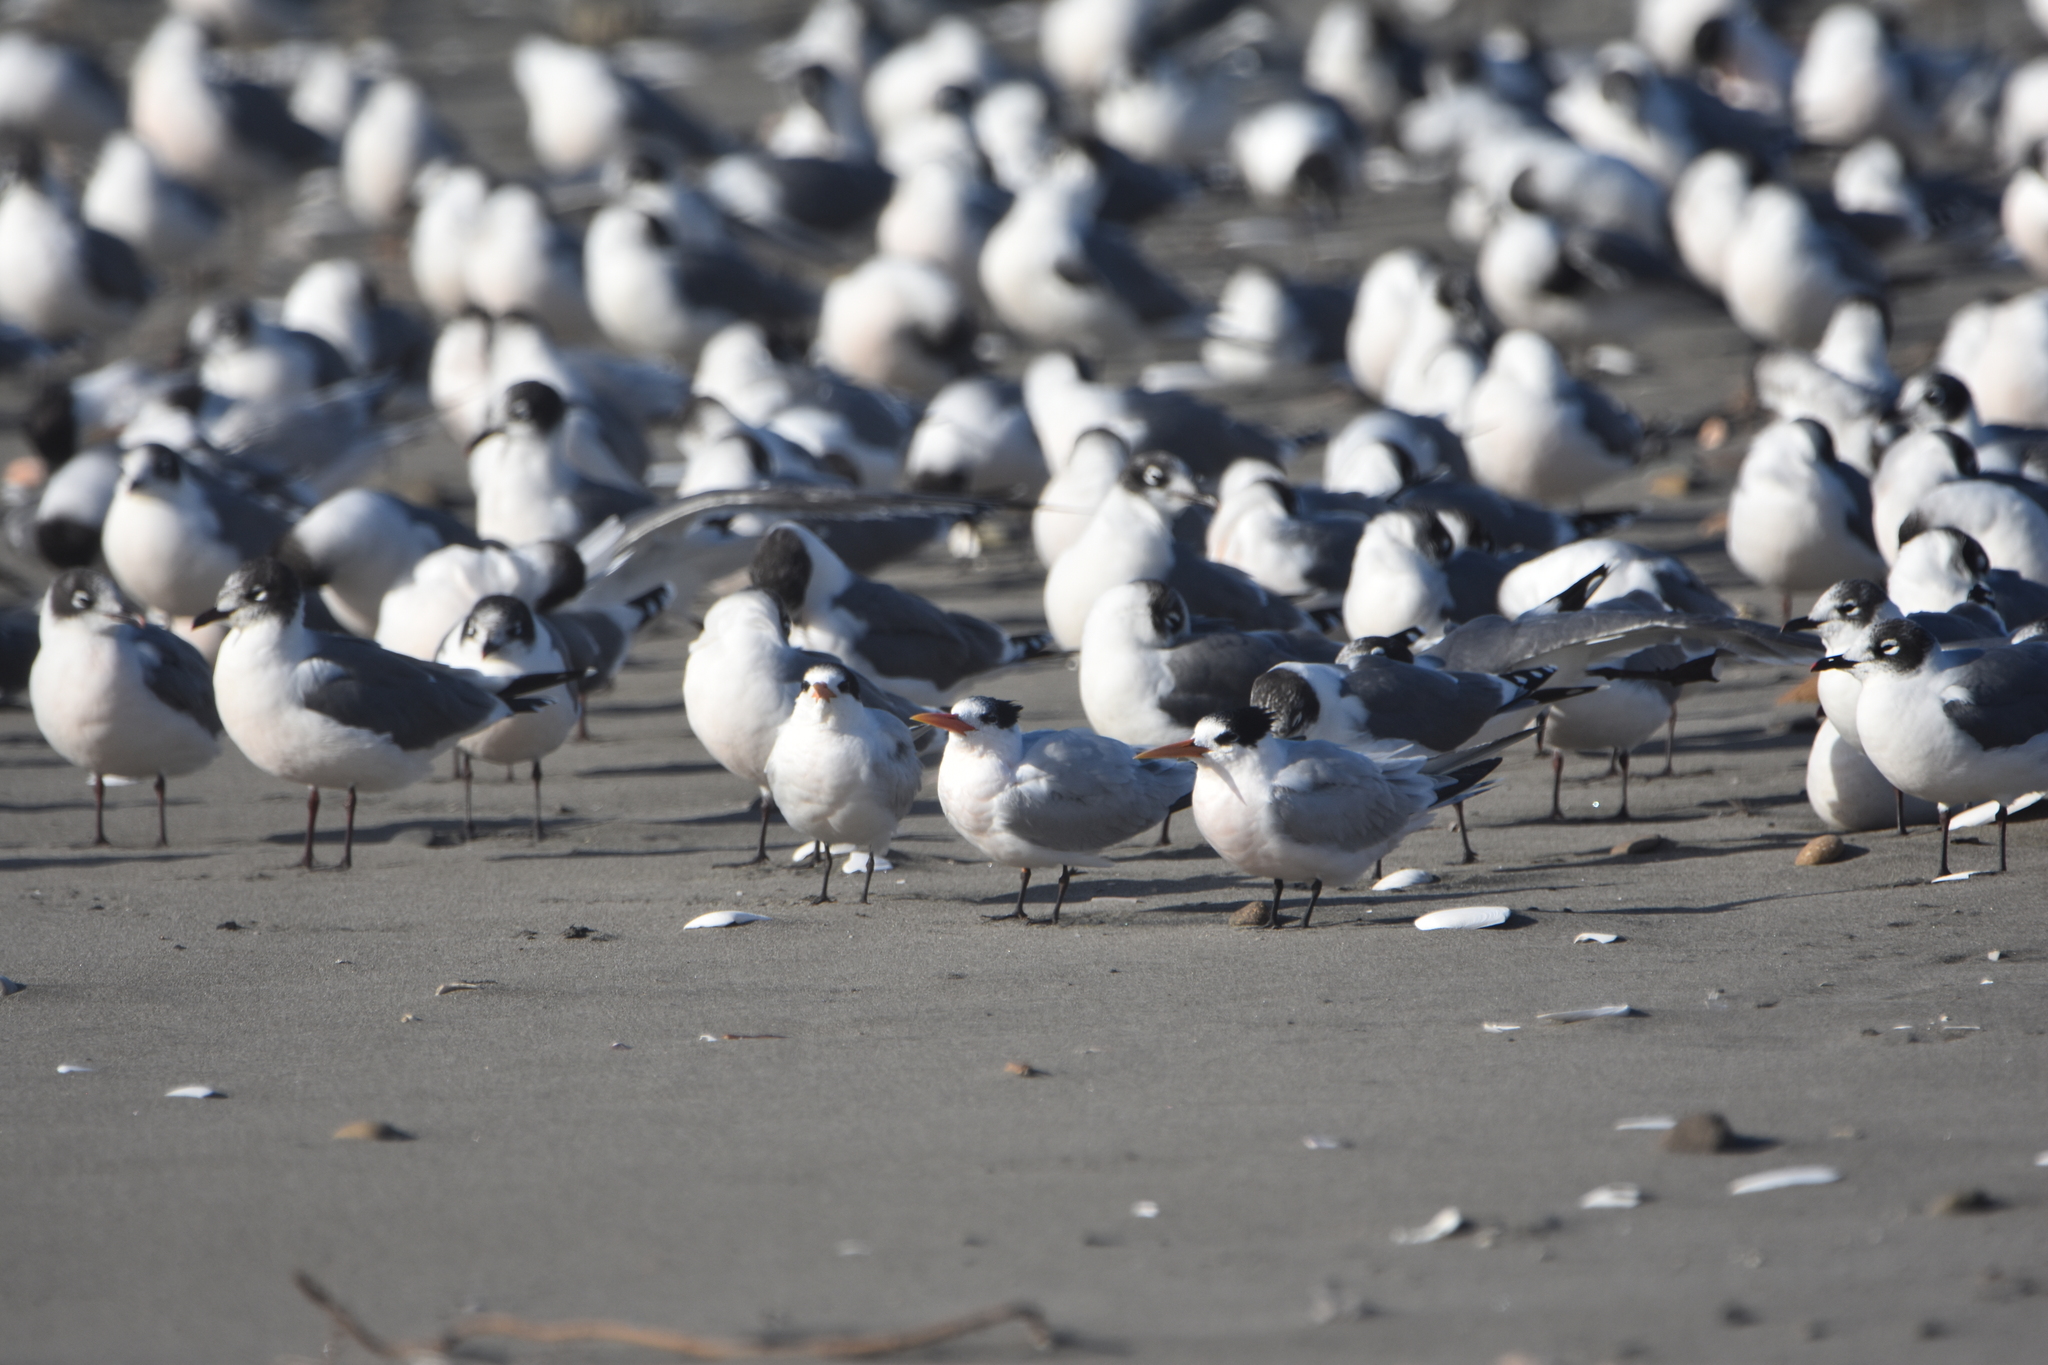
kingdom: Animalia
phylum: Chordata
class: Aves
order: Charadriiformes
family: Laridae
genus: Thalasseus
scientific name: Thalasseus elegans
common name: Elegant tern
